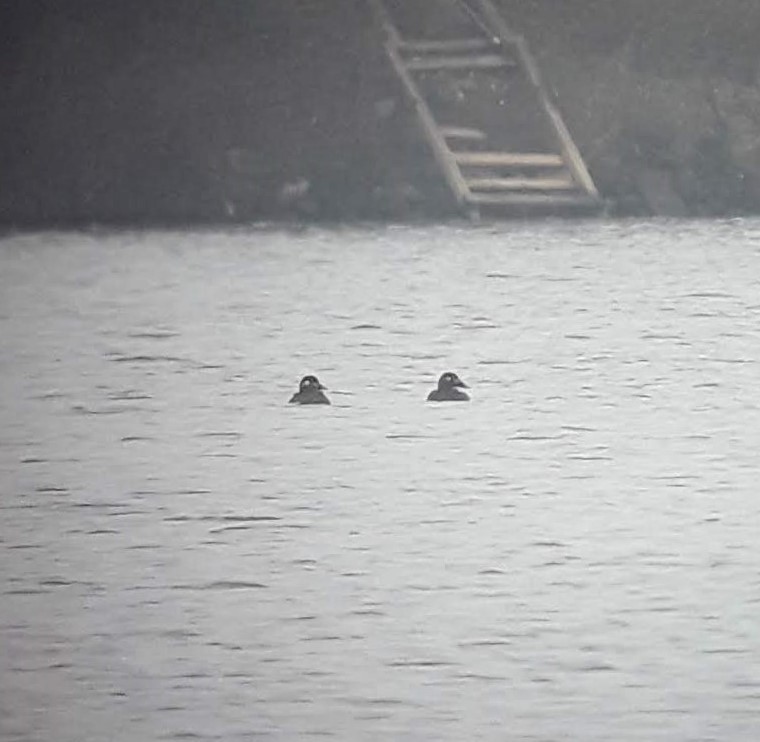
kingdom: Animalia
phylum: Chordata
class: Aves
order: Anseriformes
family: Anatidae
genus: Melanitta
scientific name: Melanitta deglandi
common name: White-winged scoter
